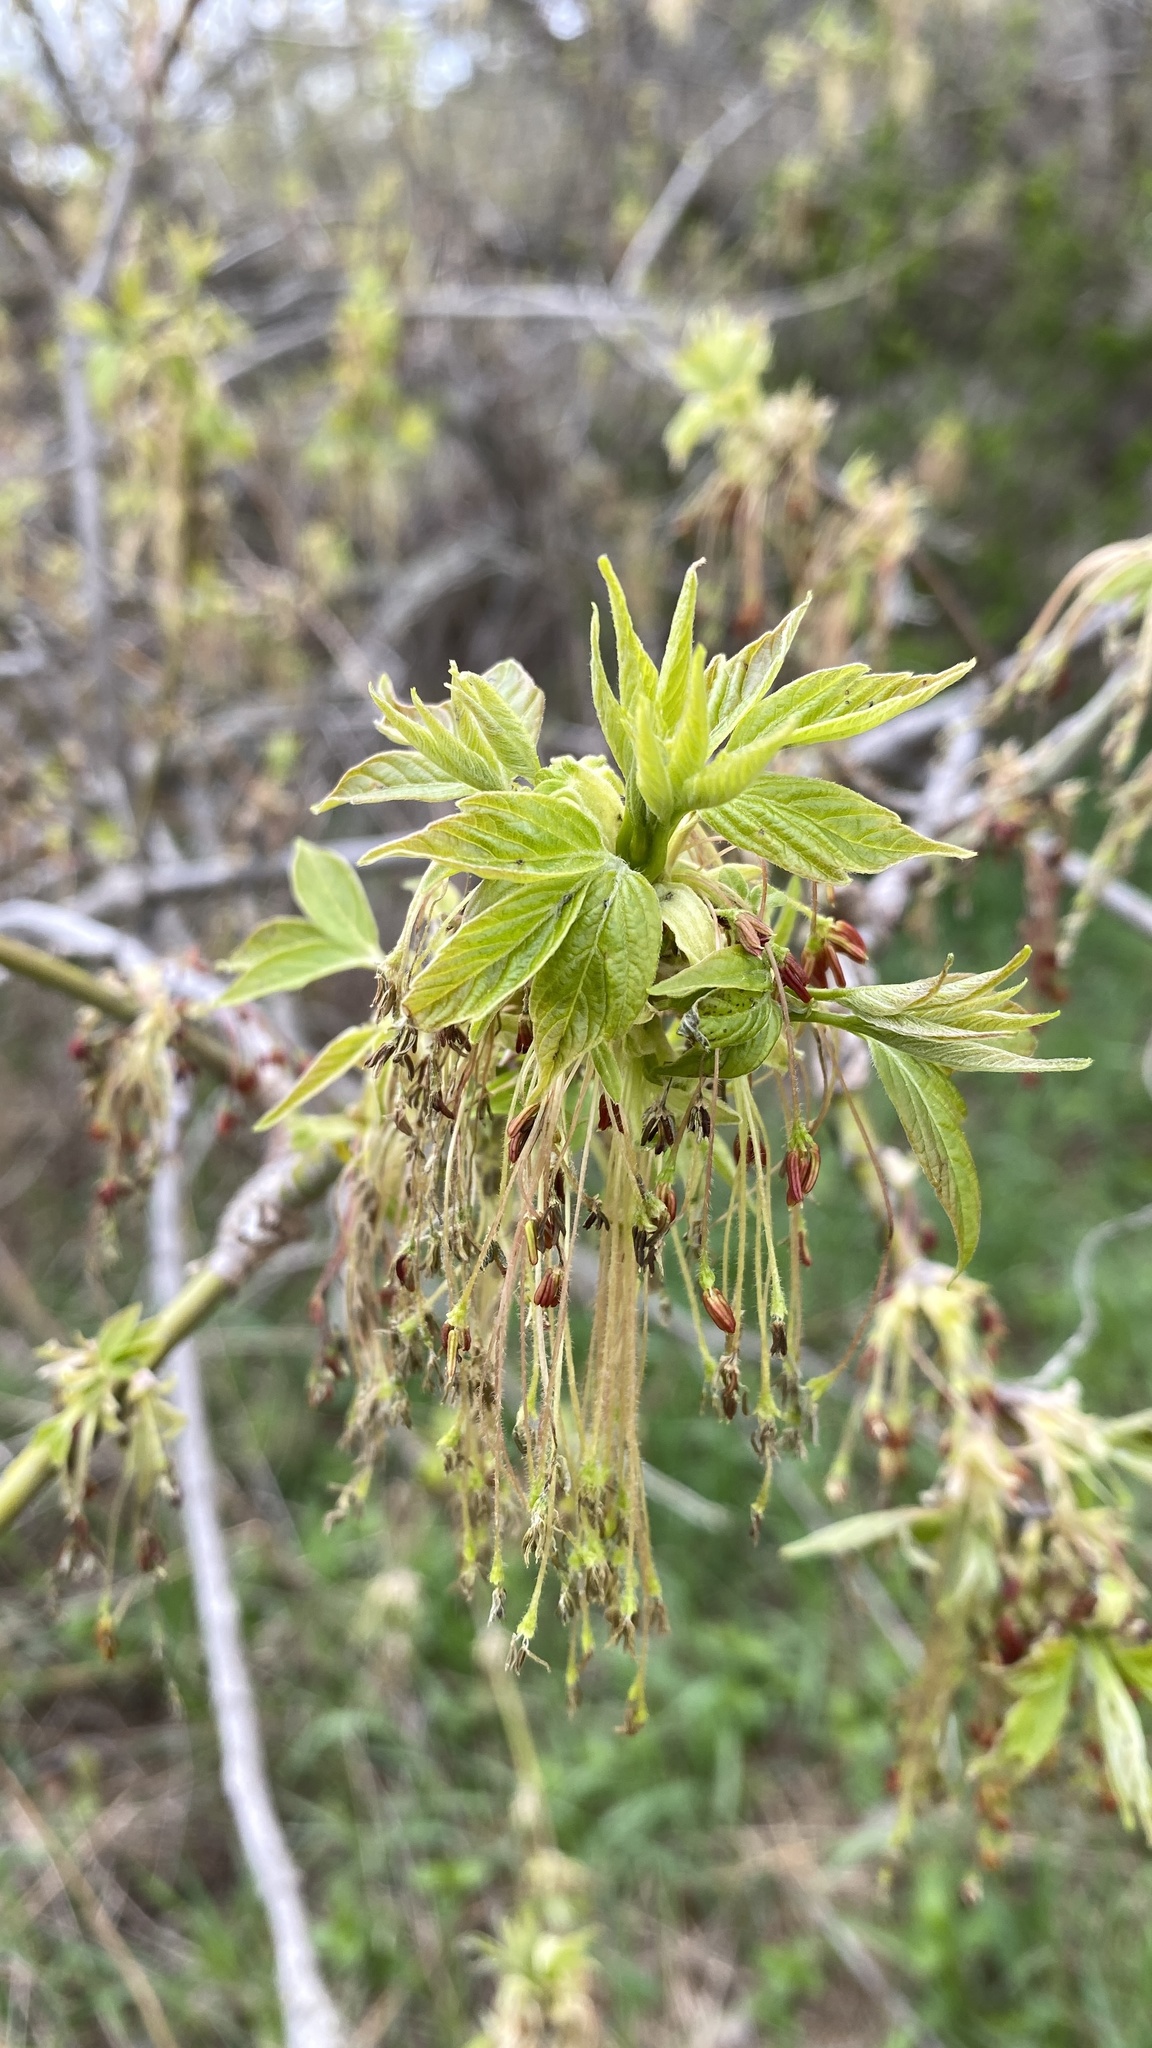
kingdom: Plantae
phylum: Tracheophyta
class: Magnoliopsida
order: Sapindales
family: Sapindaceae
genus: Acer
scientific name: Acer negundo
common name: Ashleaf maple
